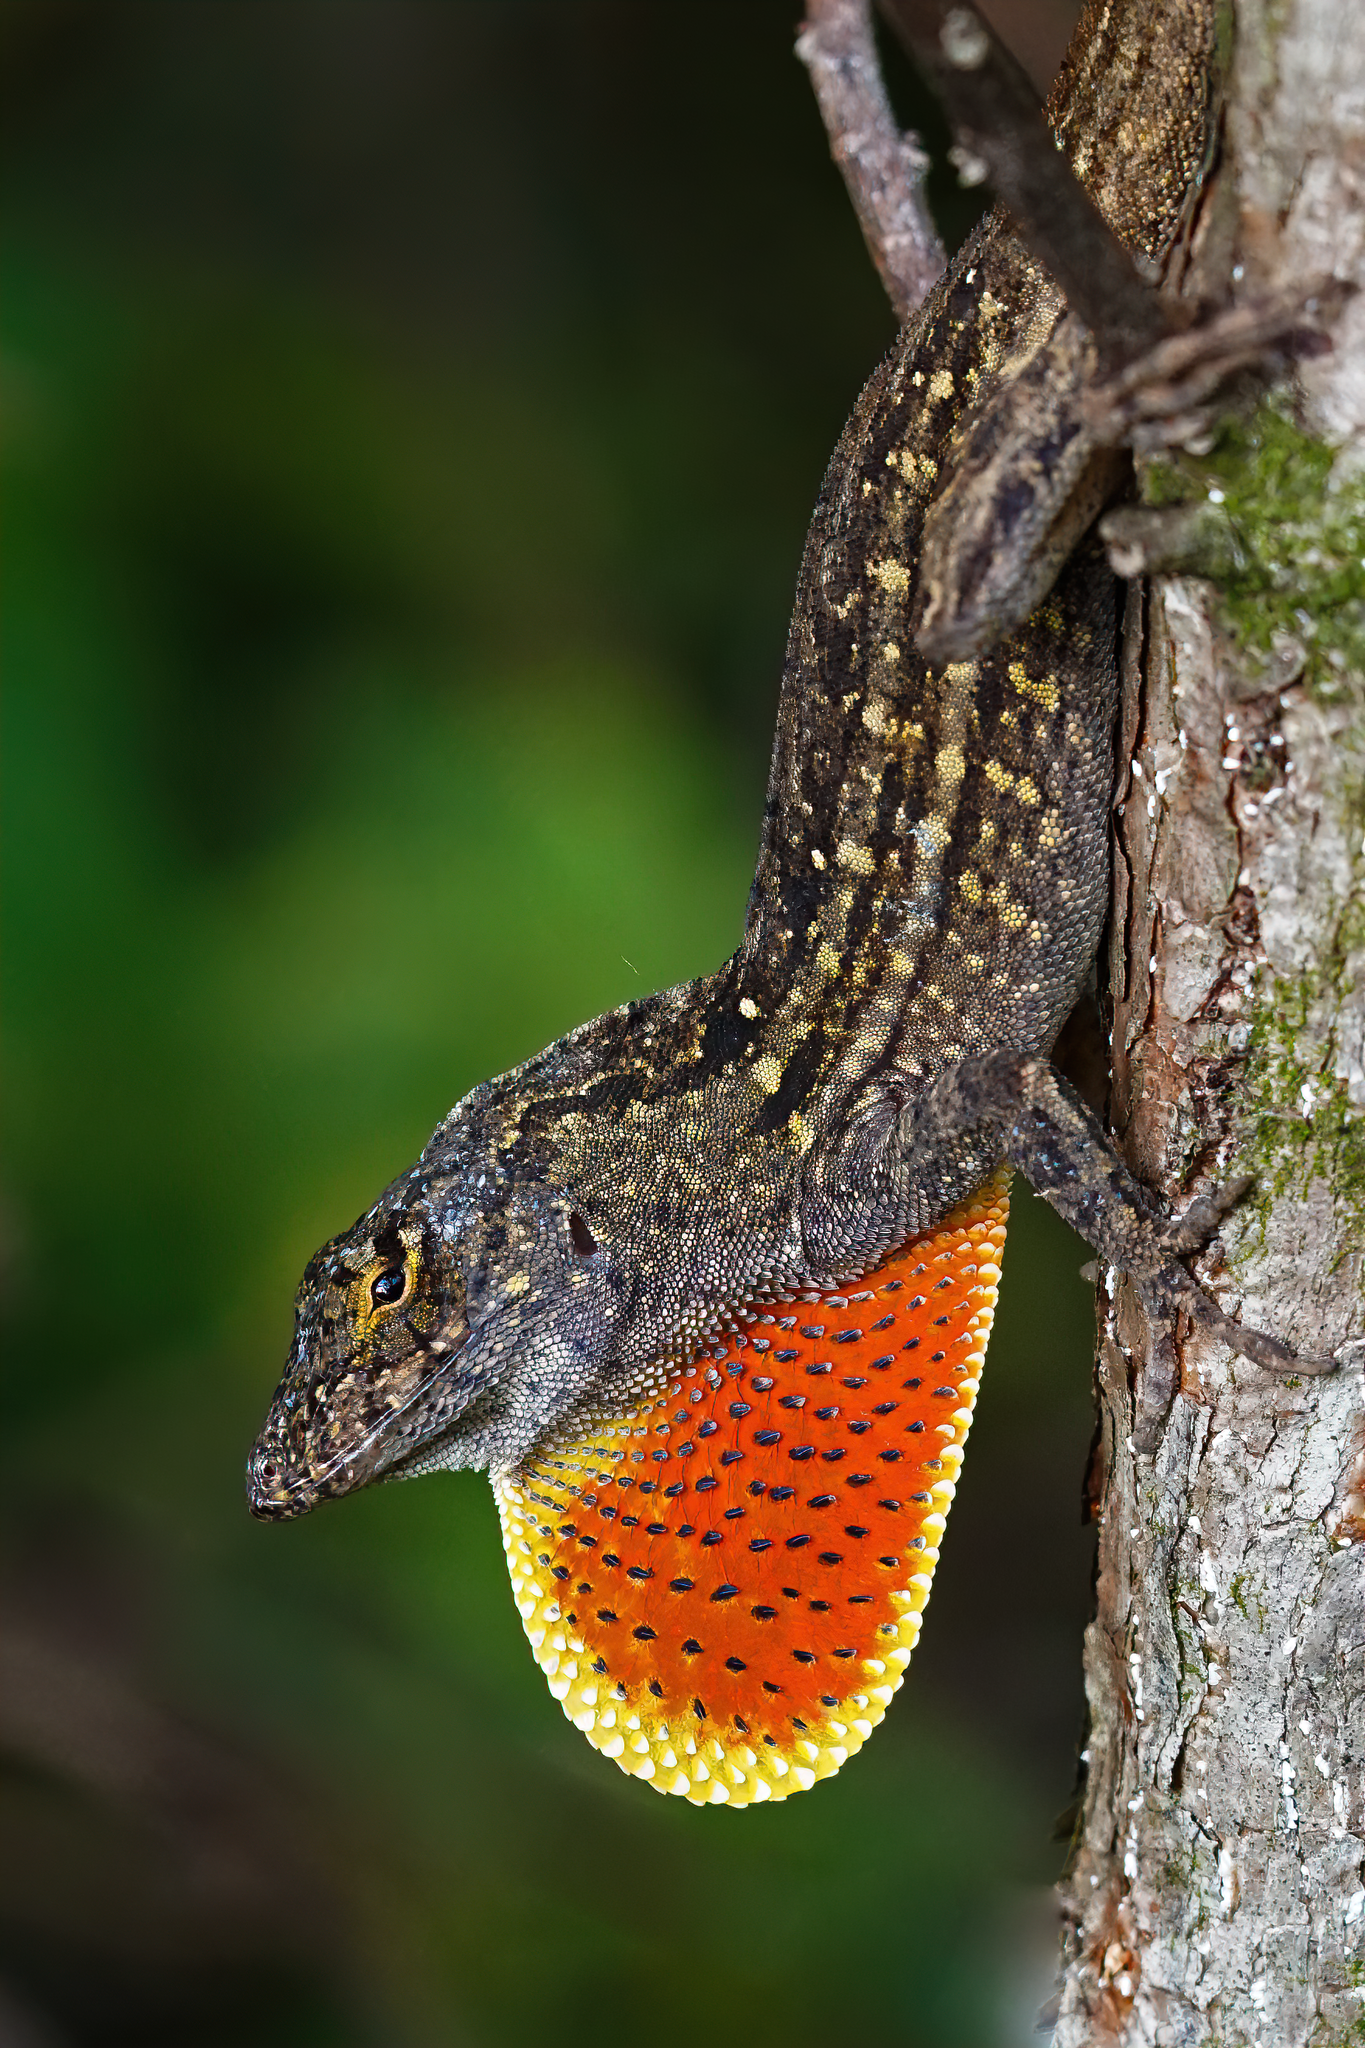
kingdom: Animalia
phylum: Chordata
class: Squamata
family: Dactyloidae
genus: Anolis
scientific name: Anolis sagrei
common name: Brown anole
